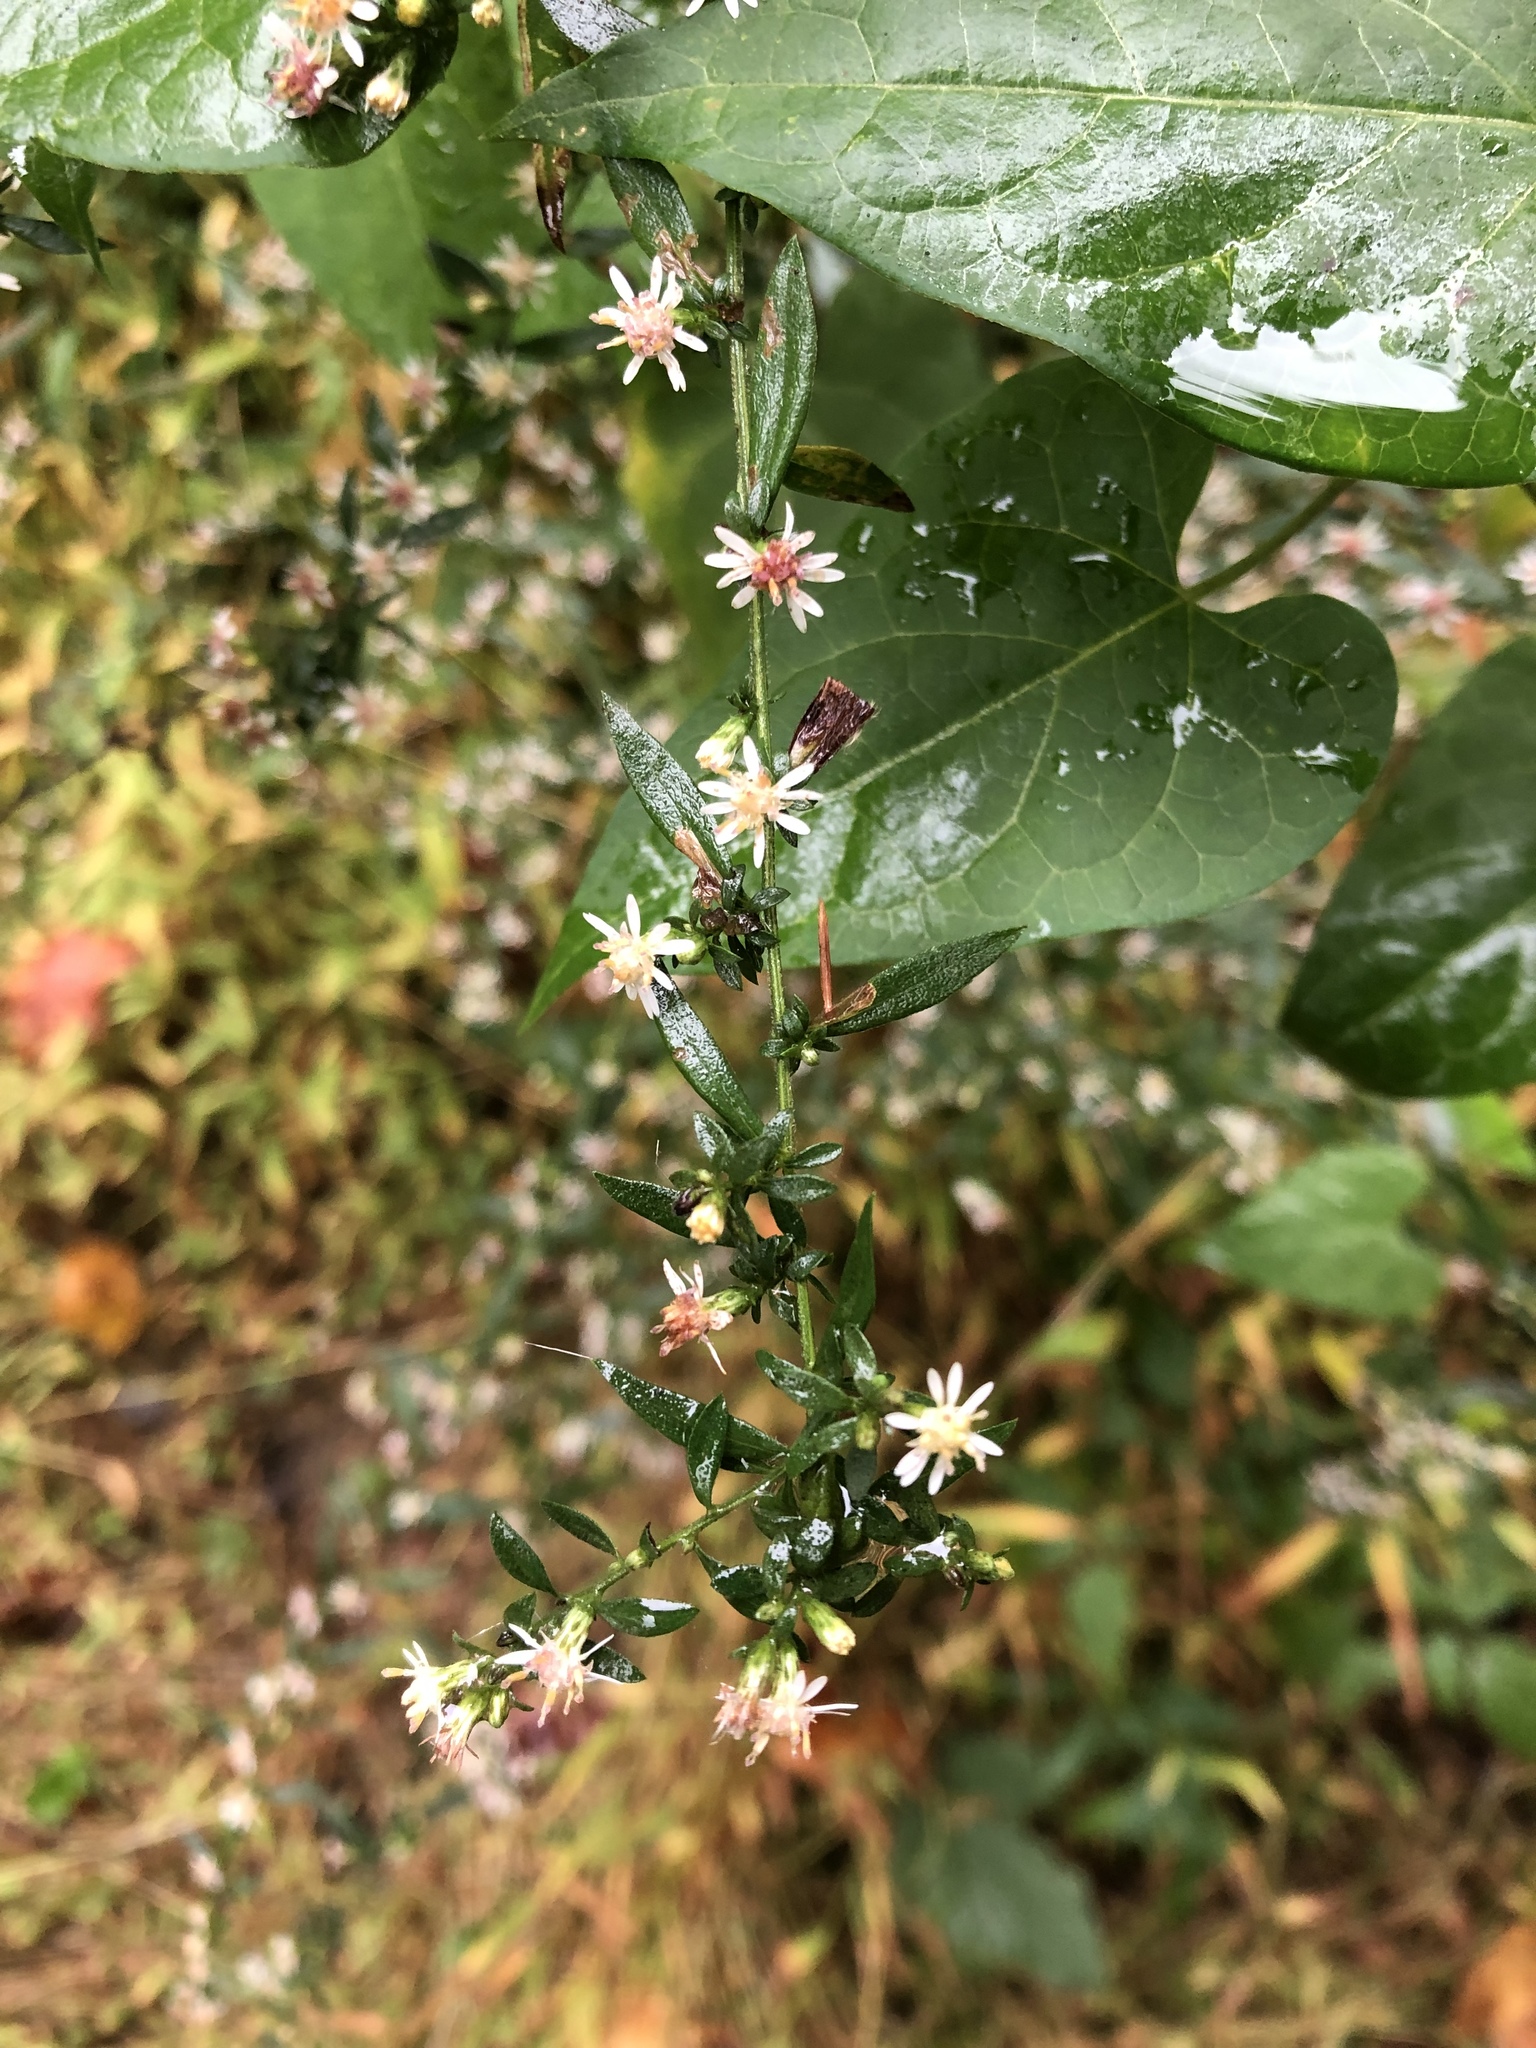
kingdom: Plantae
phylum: Tracheophyta
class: Magnoliopsida
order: Asterales
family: Asteraceae
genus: Symphyotrichum
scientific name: Symphyotrichum lateriflorum
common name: Calico aster
